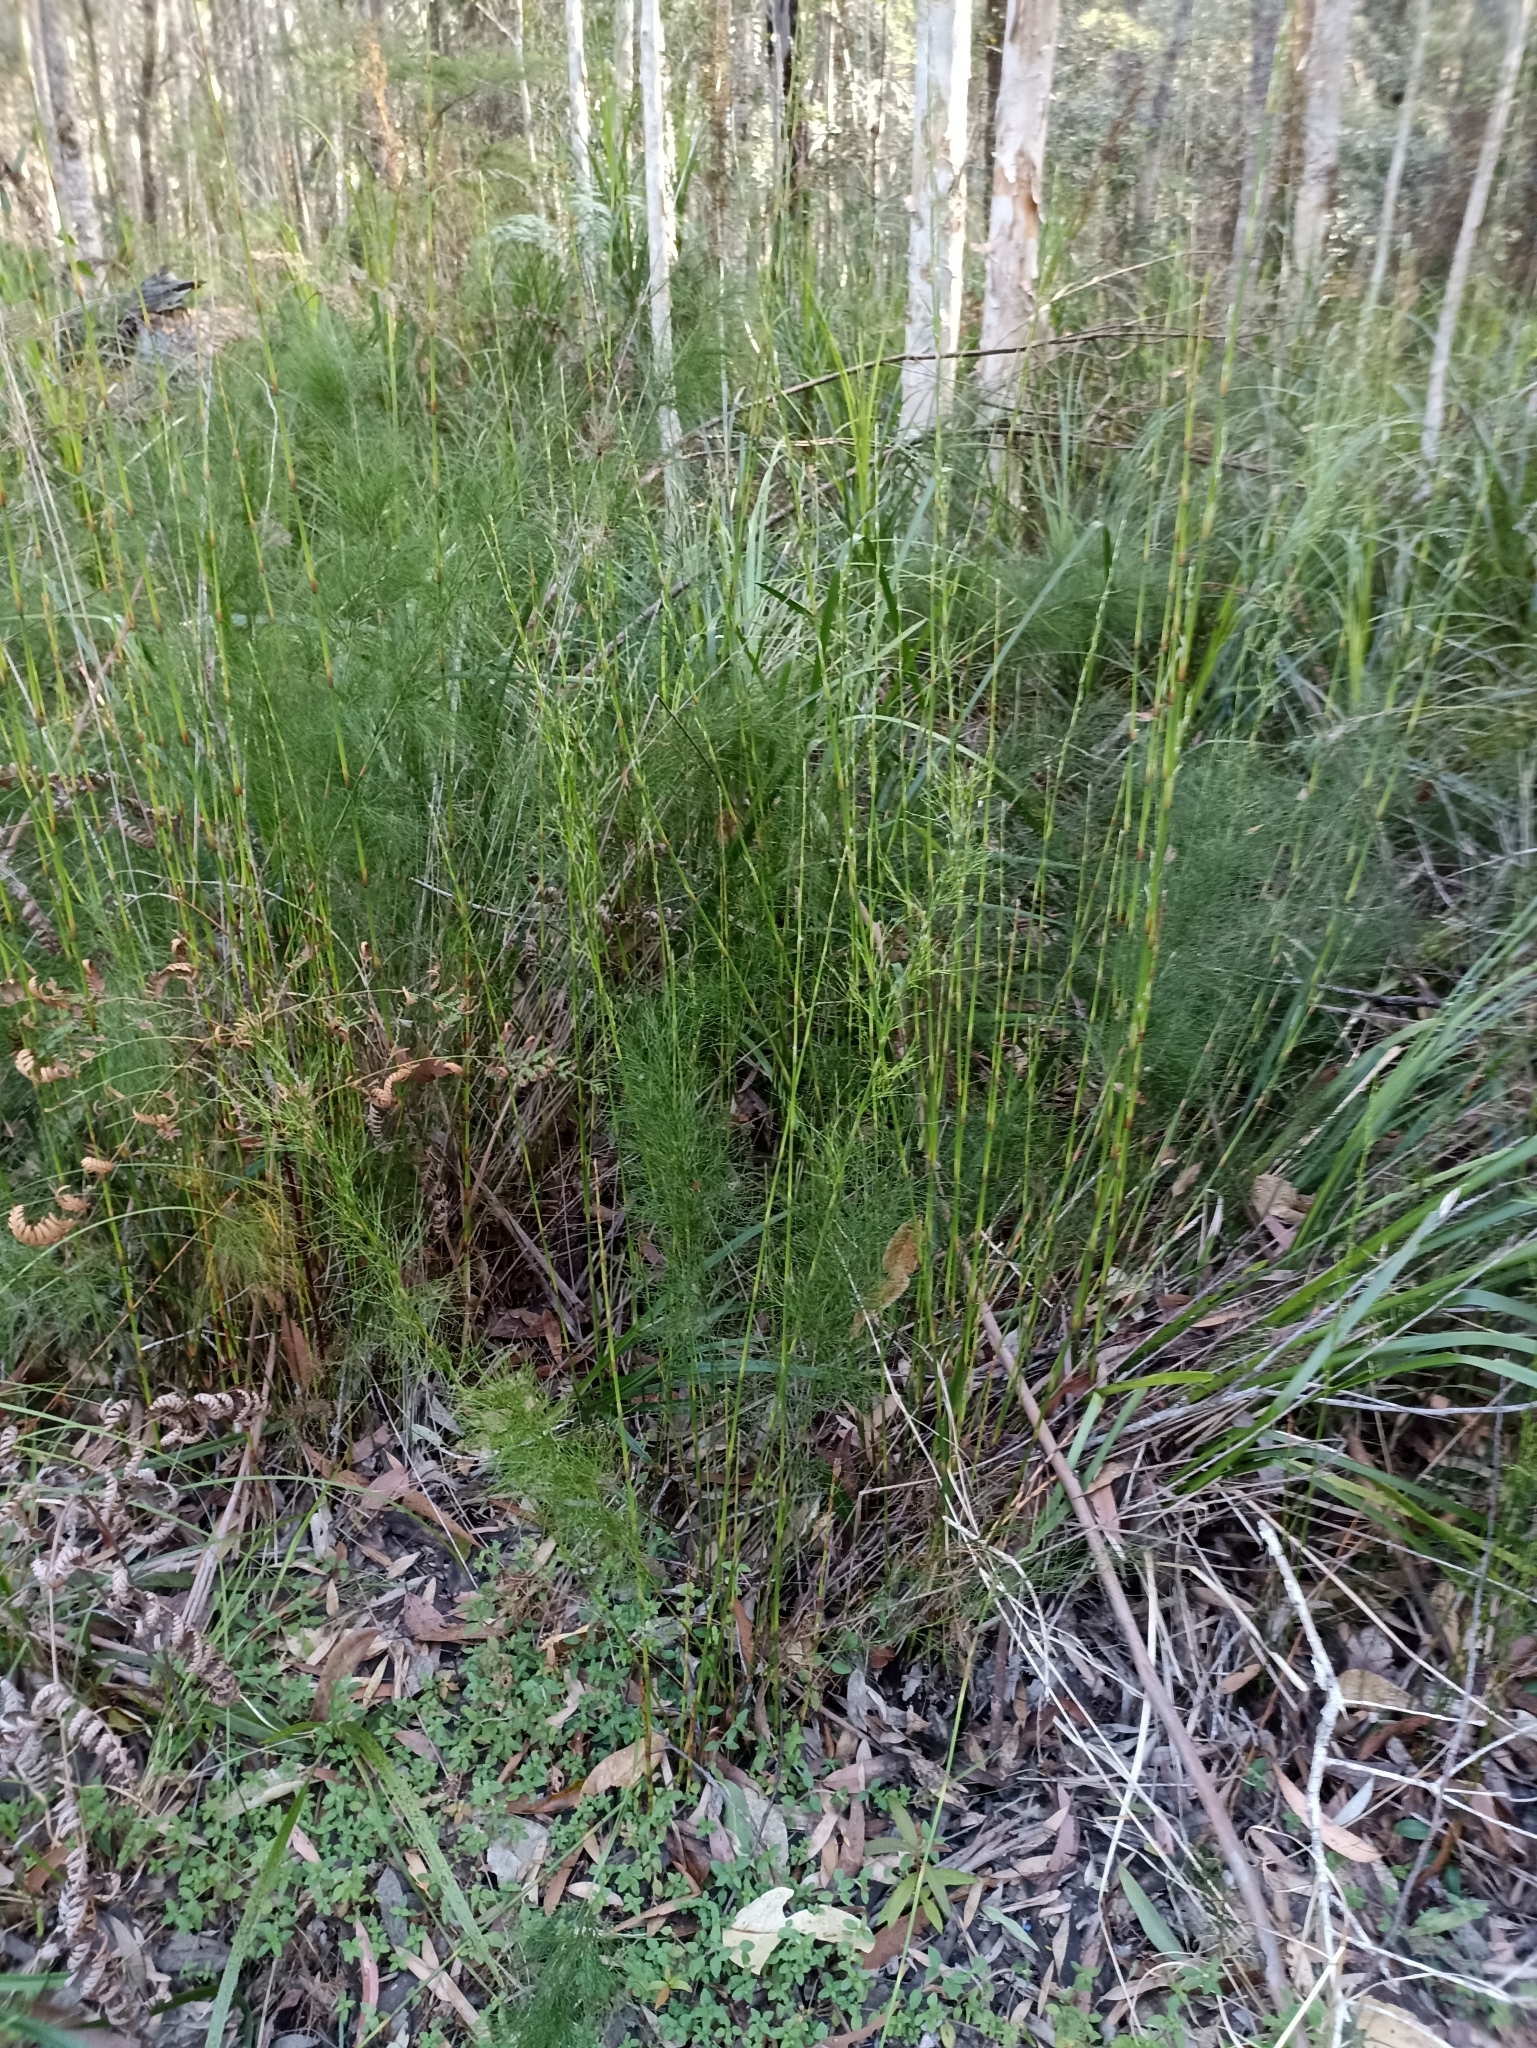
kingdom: Plantae
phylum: Tracheophyta
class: Liliopsida
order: Poales
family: Restionaceae
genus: Baloskion
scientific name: Baloskion tetraphyllum
